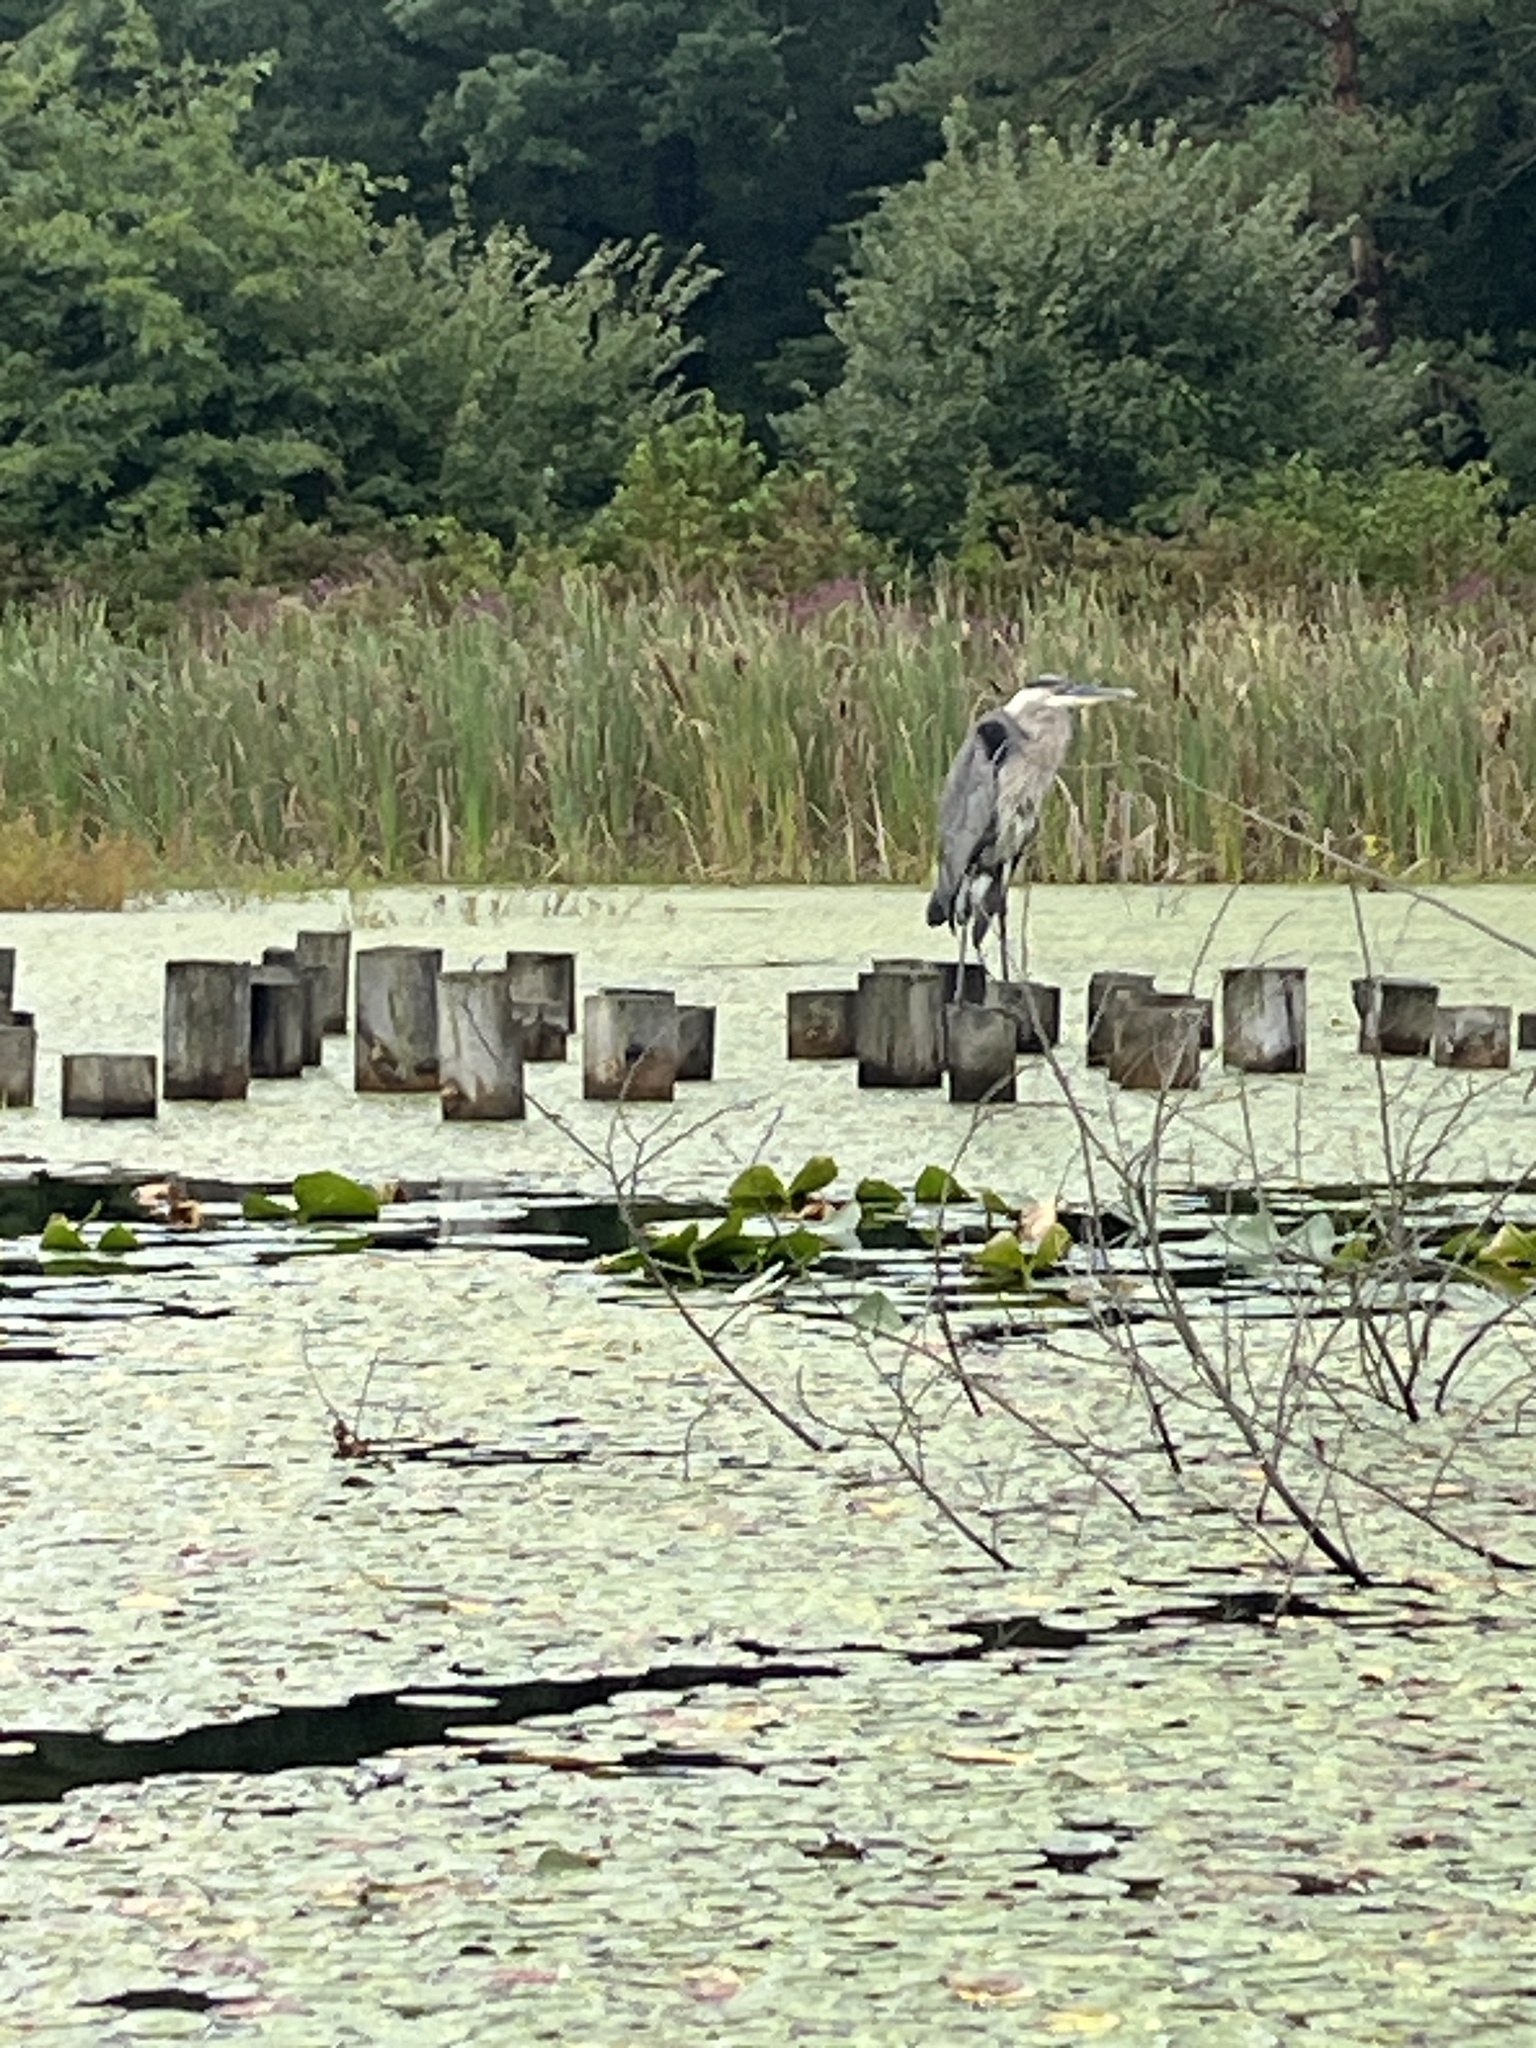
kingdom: Animalia
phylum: Chordata
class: Aves
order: Pelecaniformes
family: Ardeidae
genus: Ardea
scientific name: Ardea herodias
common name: Great blue heron
